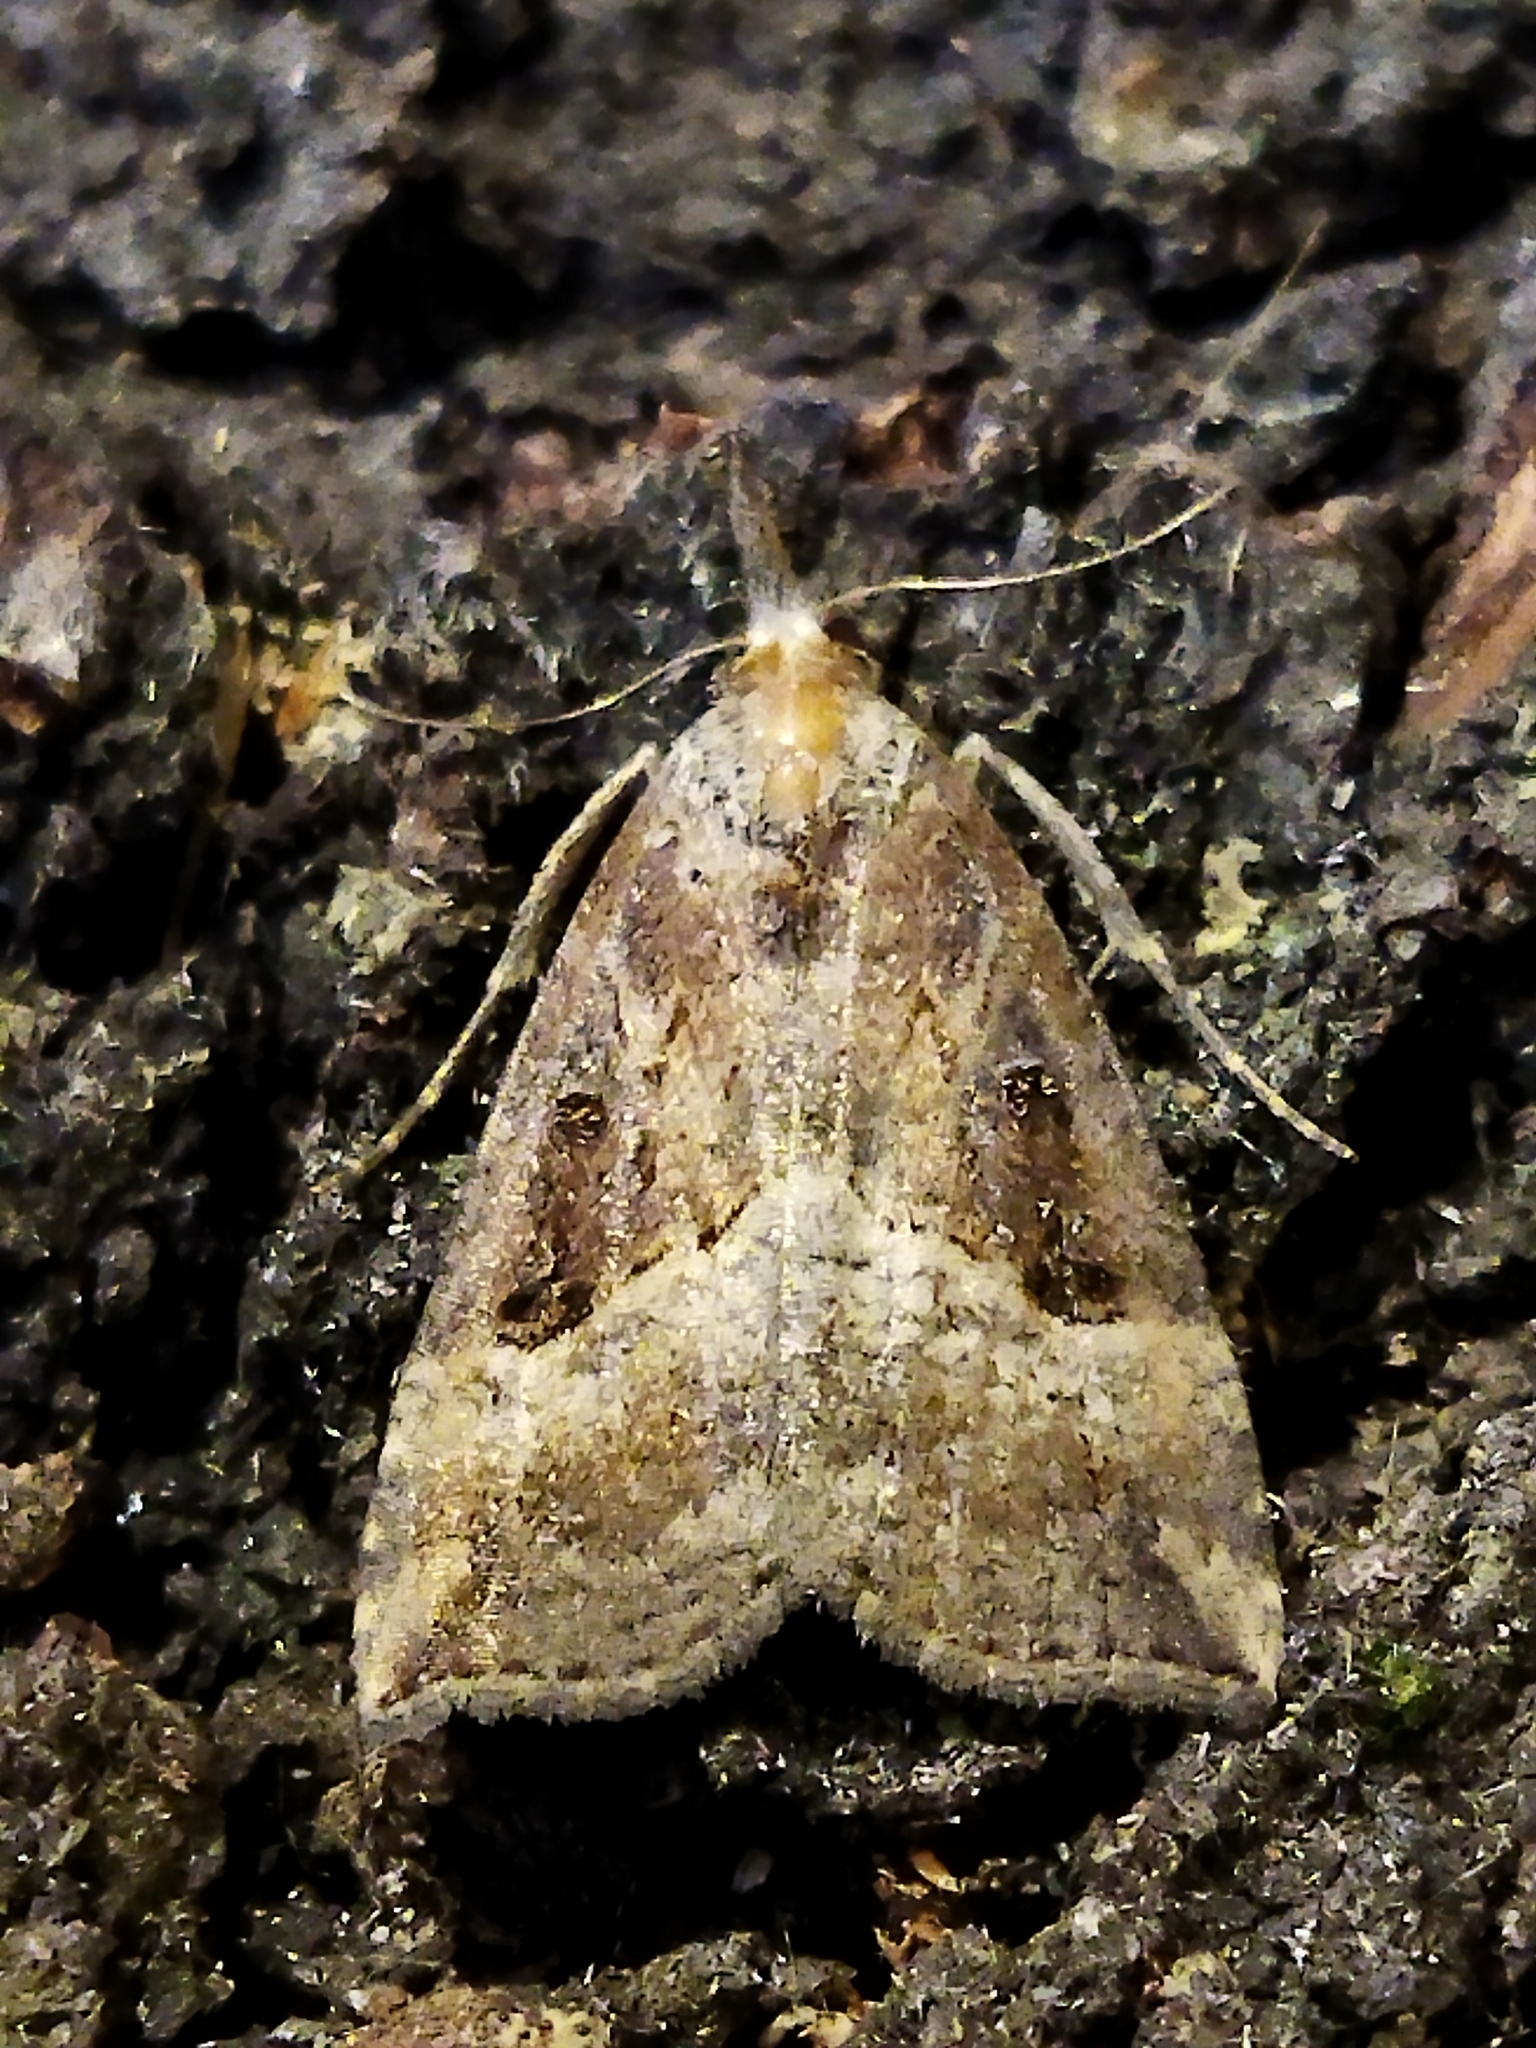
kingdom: Animalia
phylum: Arthropoda
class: Insecta
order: Lepidoptera
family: Erebidae
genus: Hypena
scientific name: Hypena rostralis
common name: Buttoned snout
